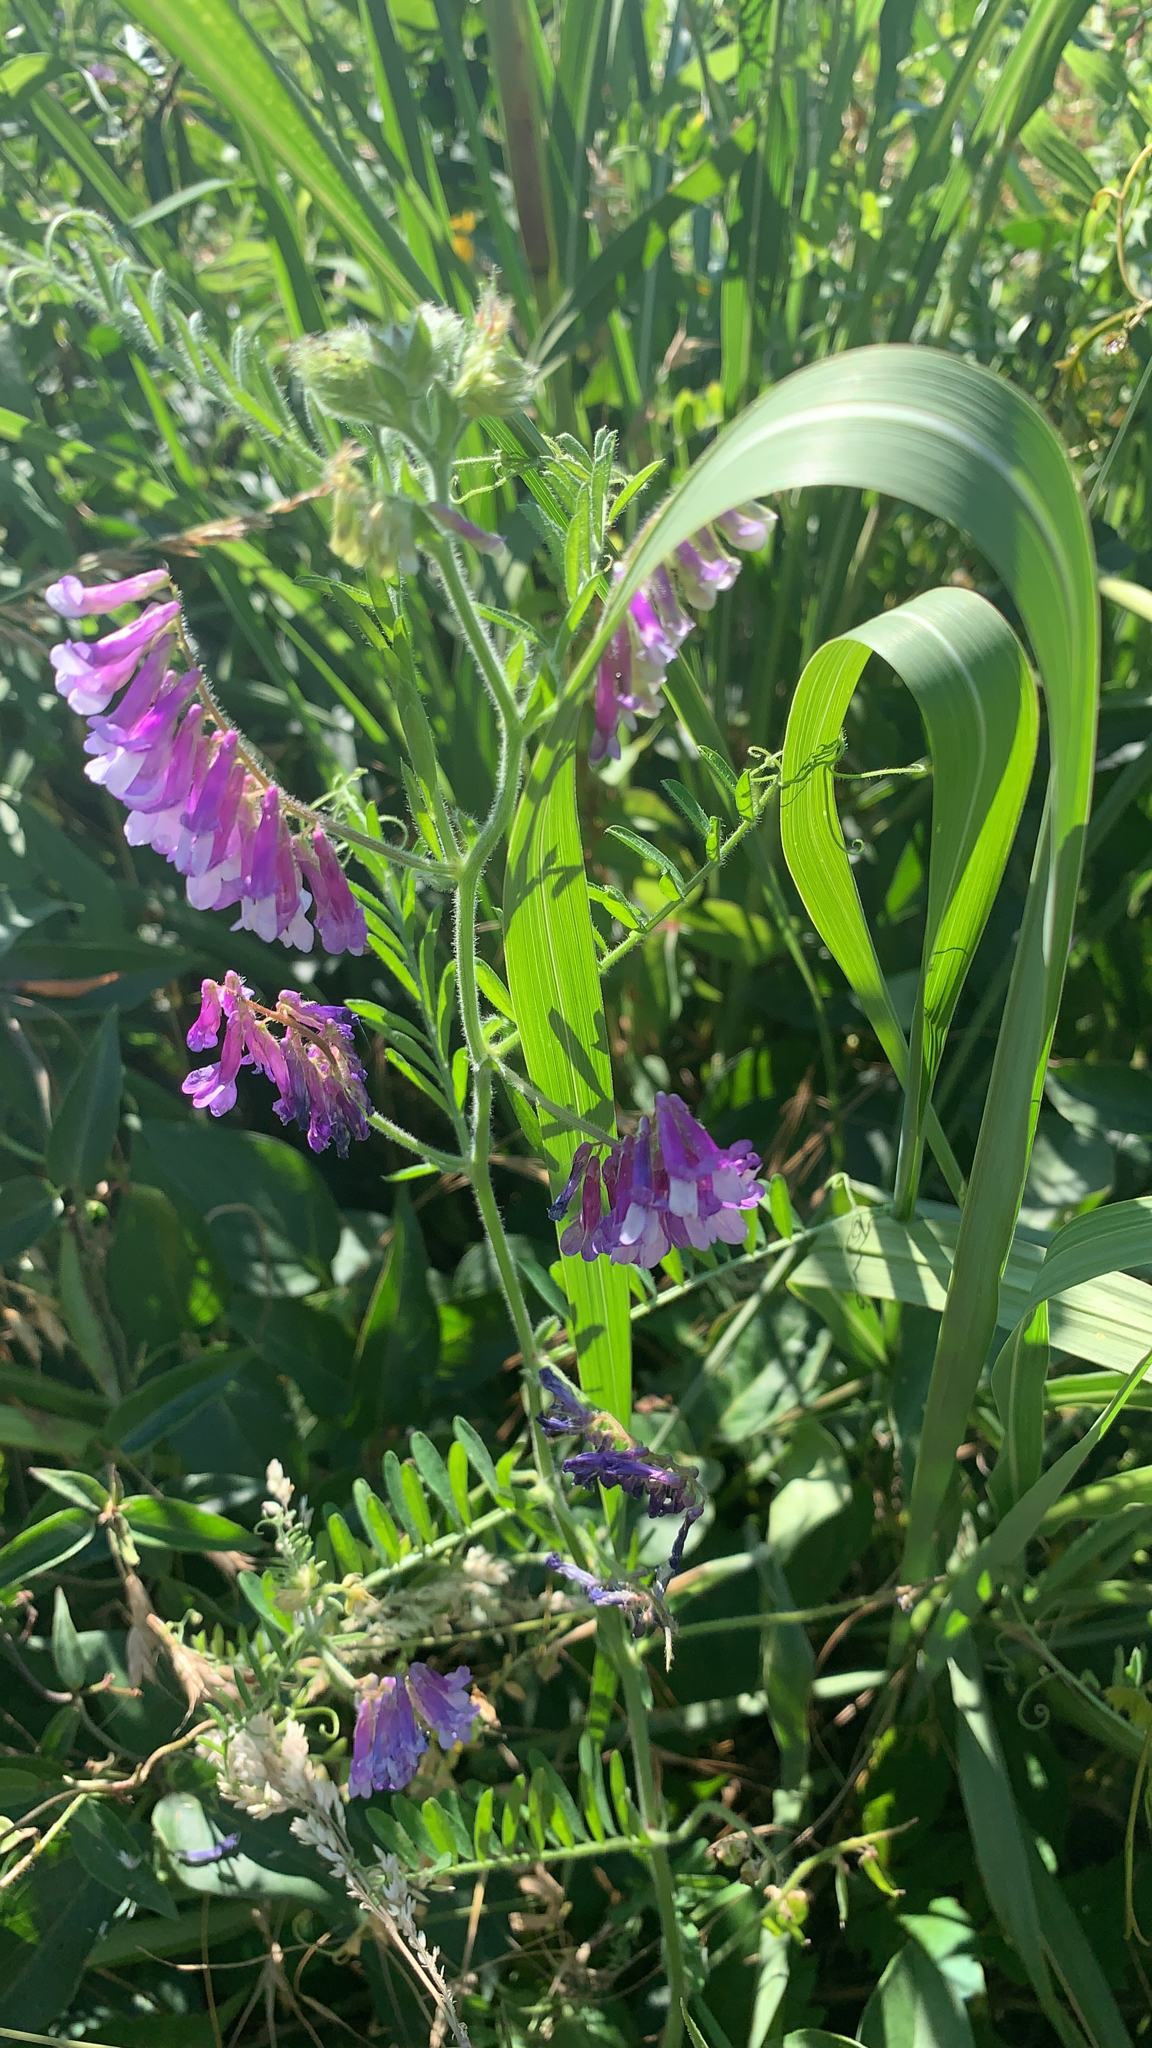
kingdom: Plantae
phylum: Tracheophyta
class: Magnoliopsida
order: Fabales
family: Fabaceae
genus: Vicia
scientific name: Vicia villosa
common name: Fodder vetch
